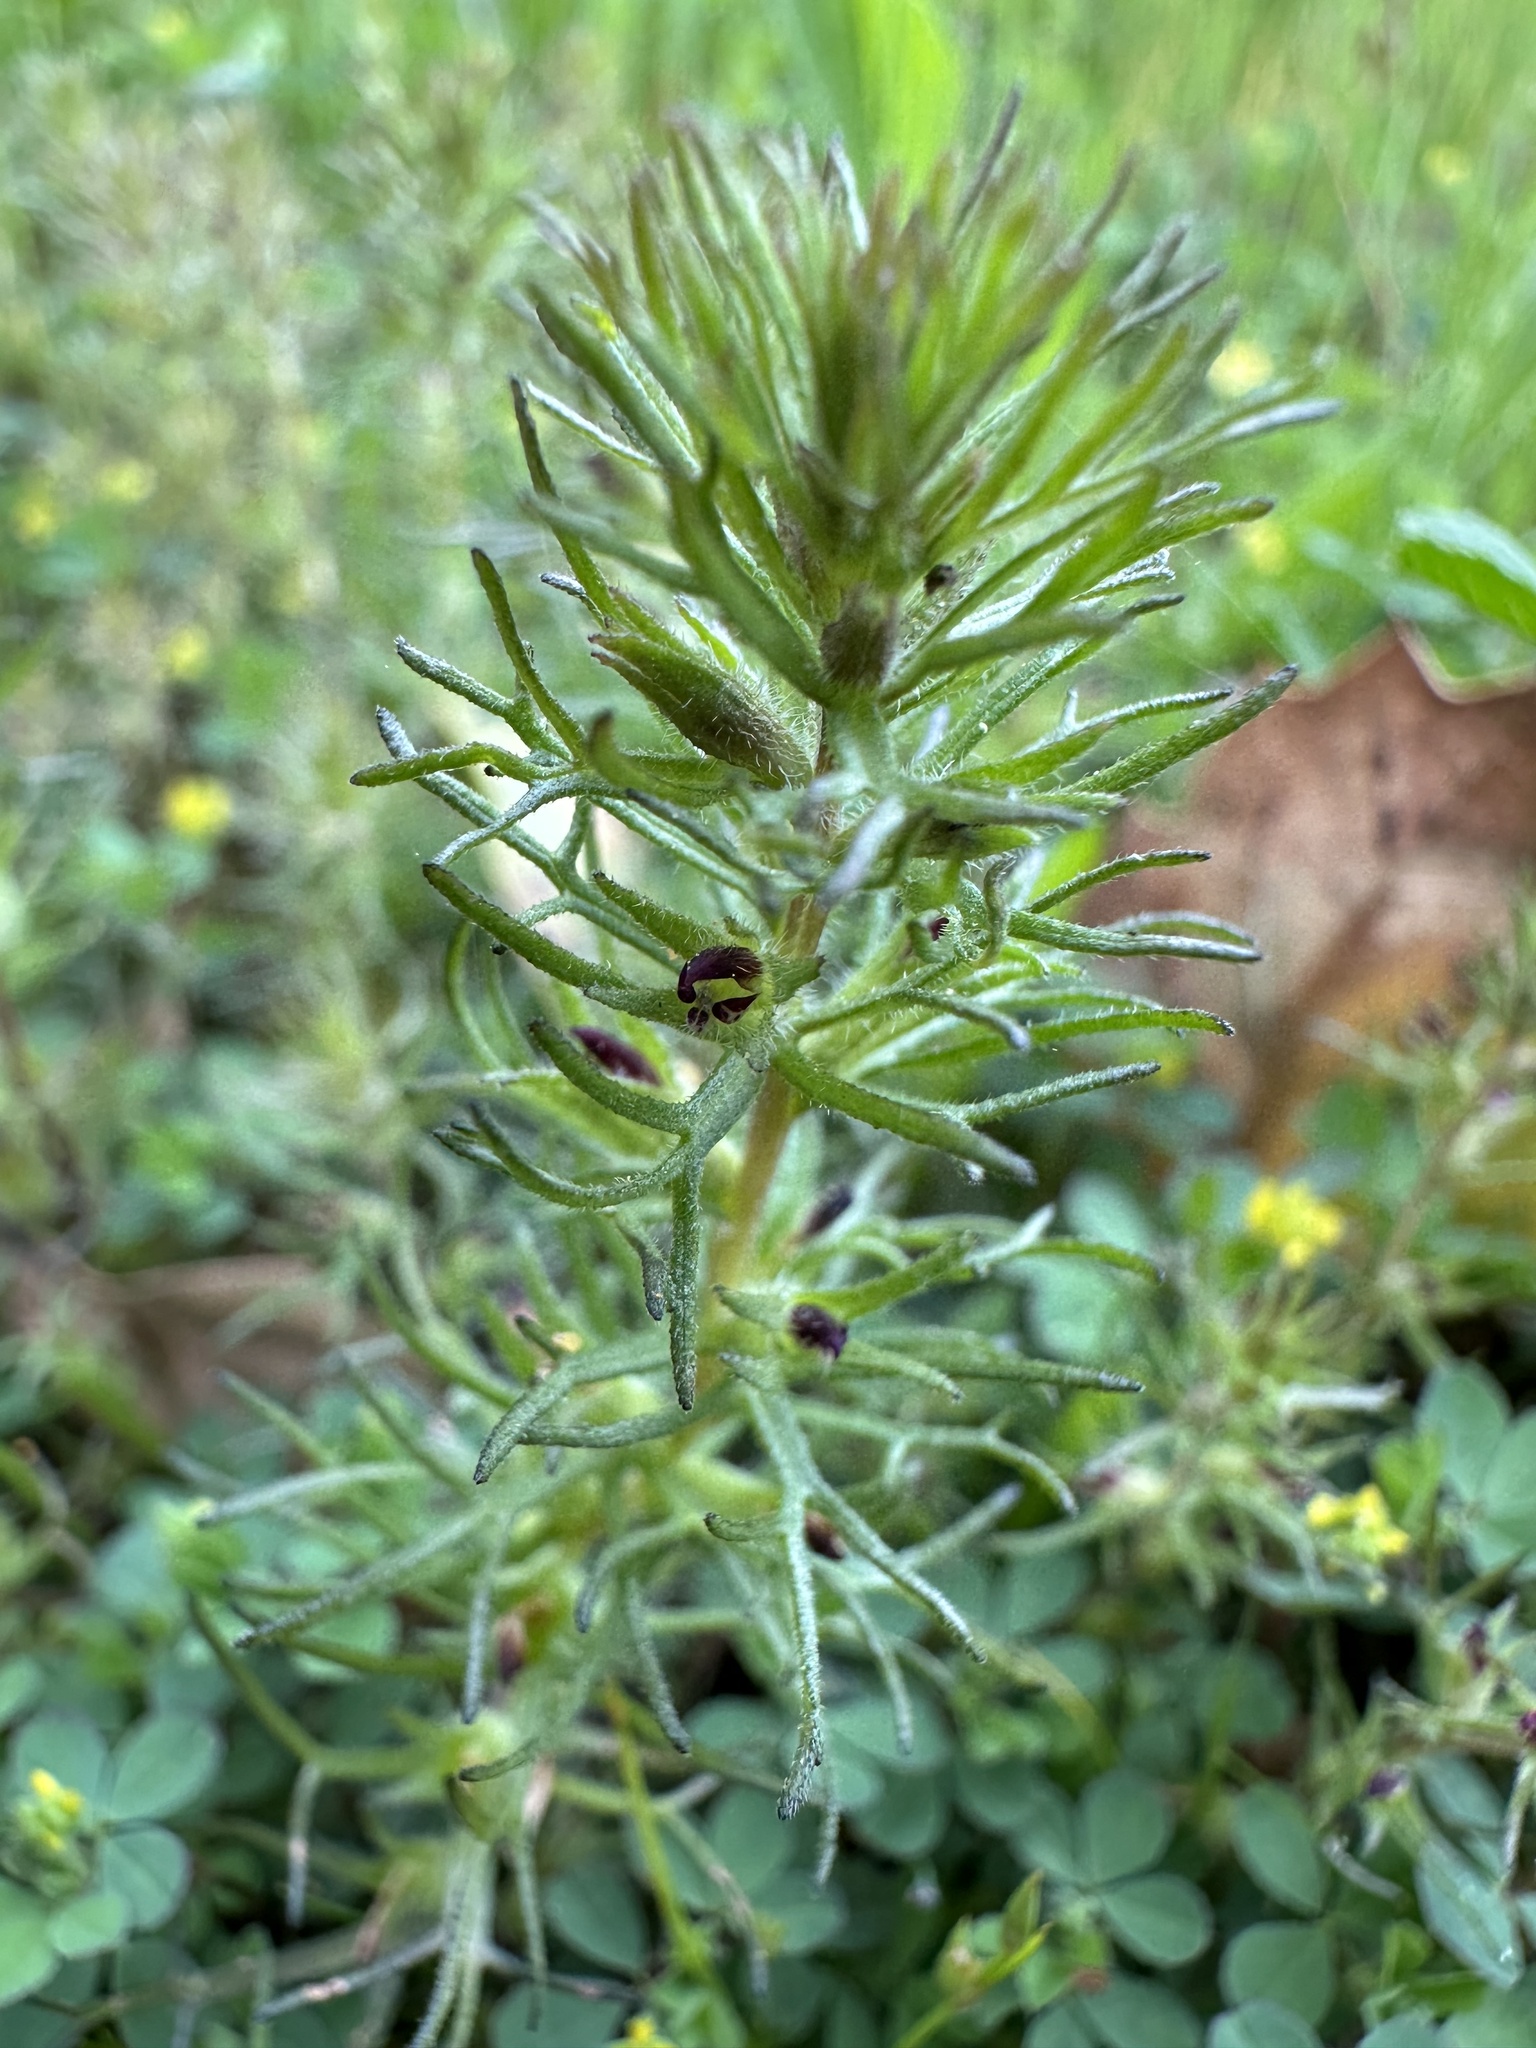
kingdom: Plantae
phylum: Tracheophyta
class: Magnoliopsida
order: Lamiales
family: Orobanchaceae
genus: Triphysaria
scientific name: Triphysaria pusilla
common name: Dwarf false owl-clover
